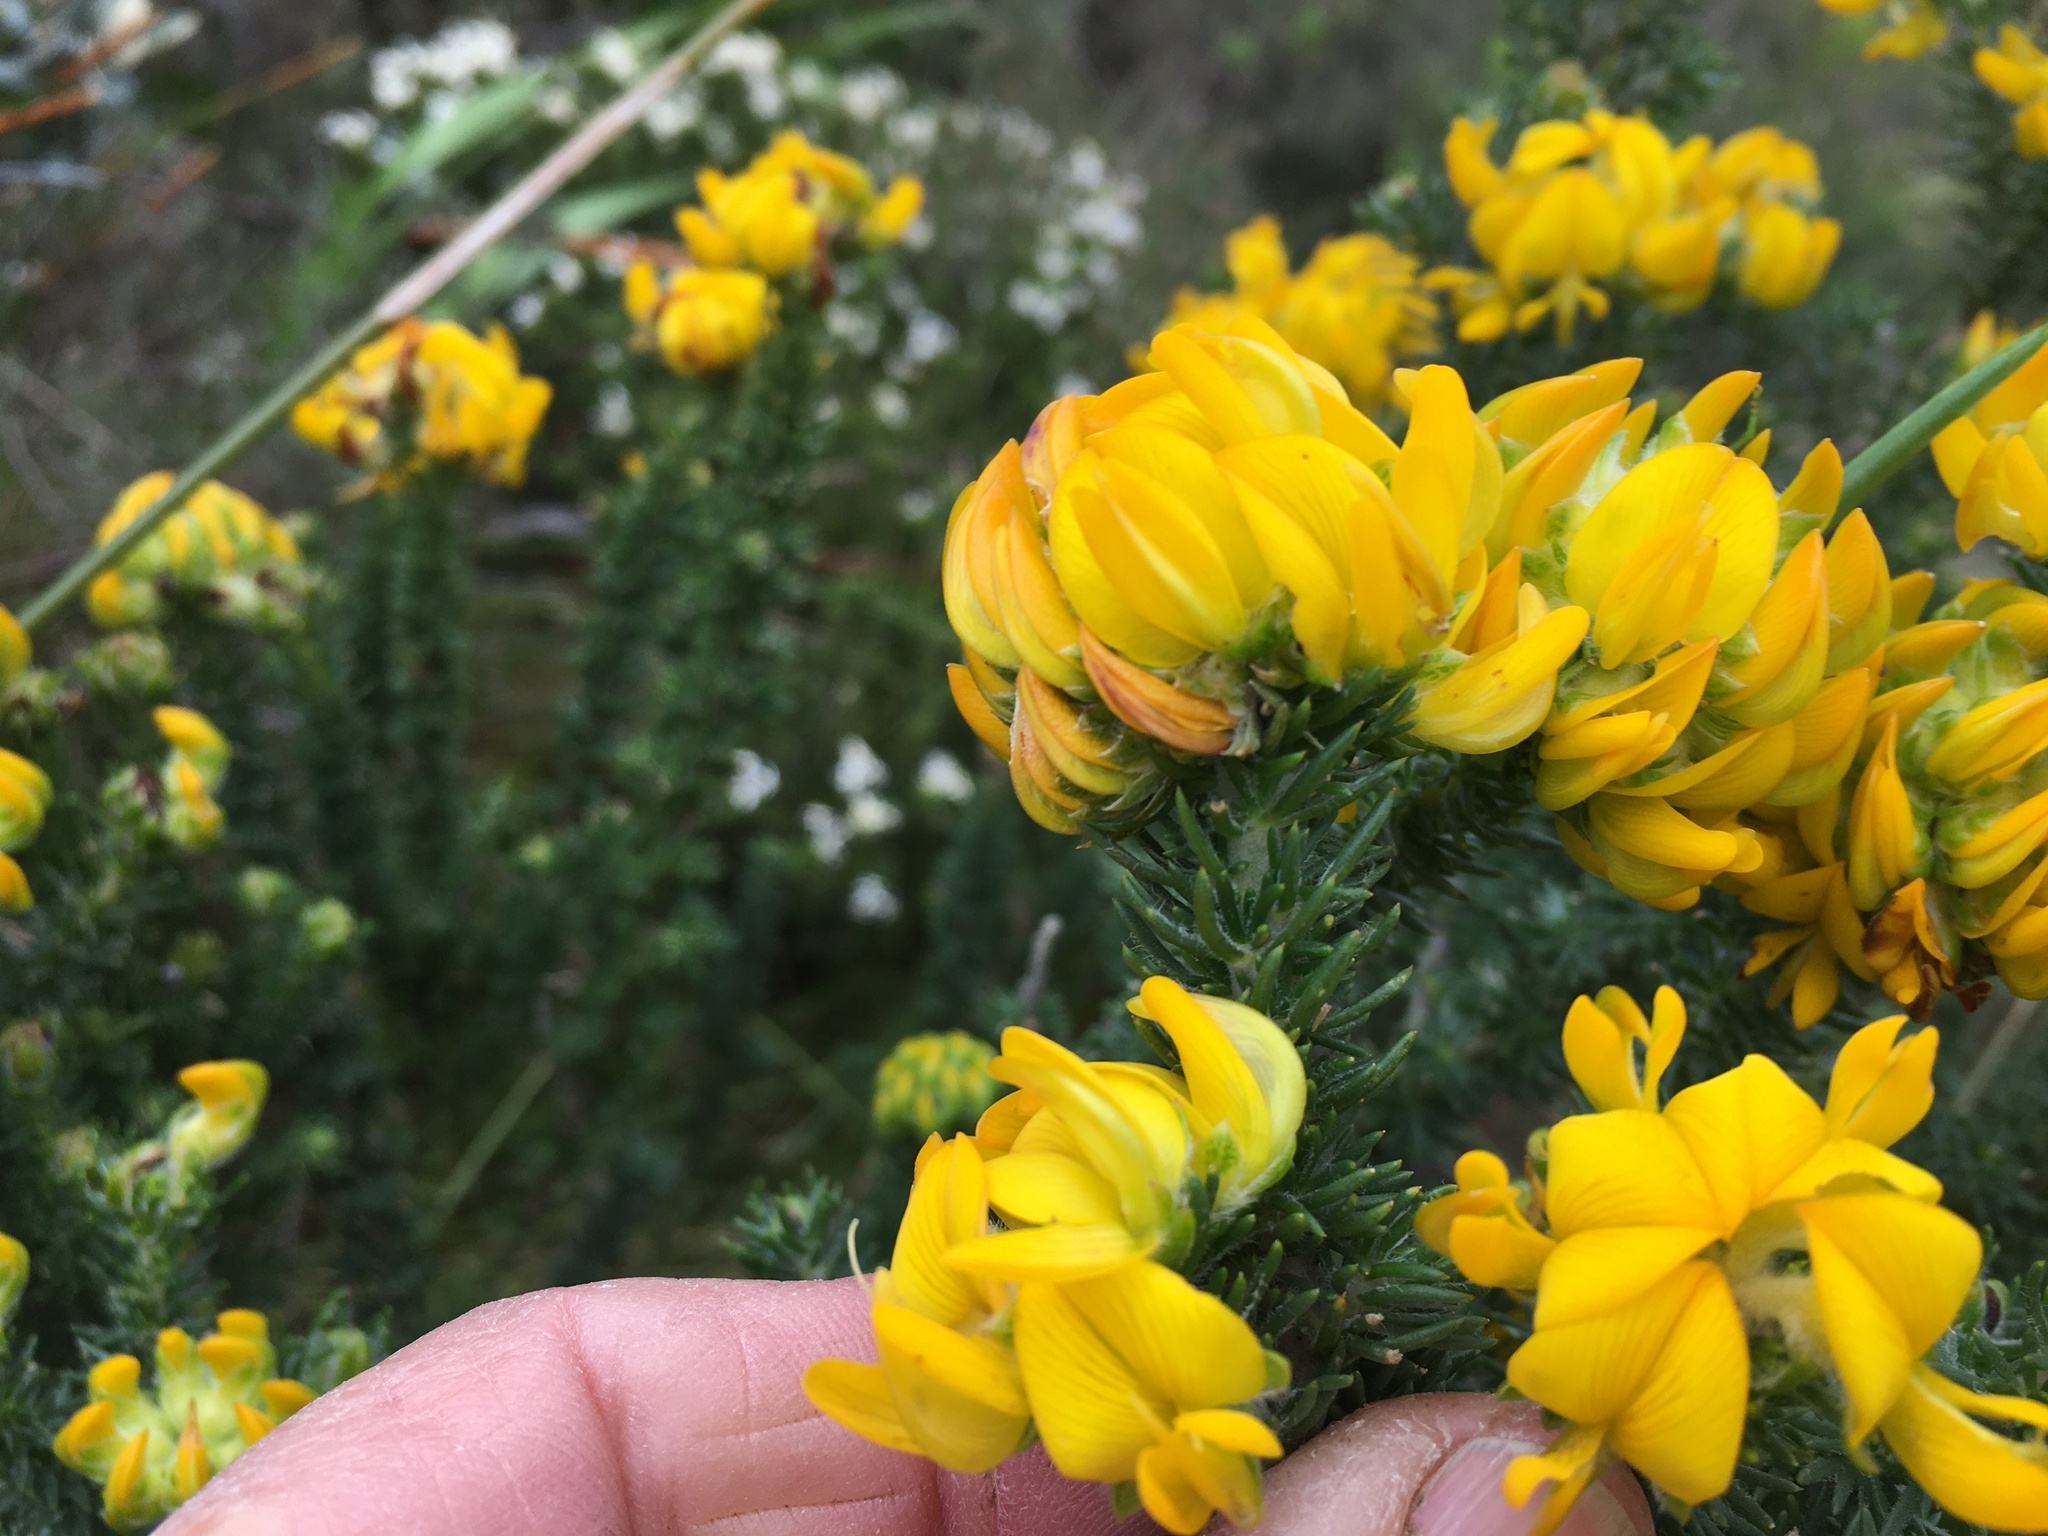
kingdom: Plantae
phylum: Tracheophyta
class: Magnoliopsida
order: Fabales
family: Fabaceae
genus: Aspalathus
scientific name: Aspalathus capitata
